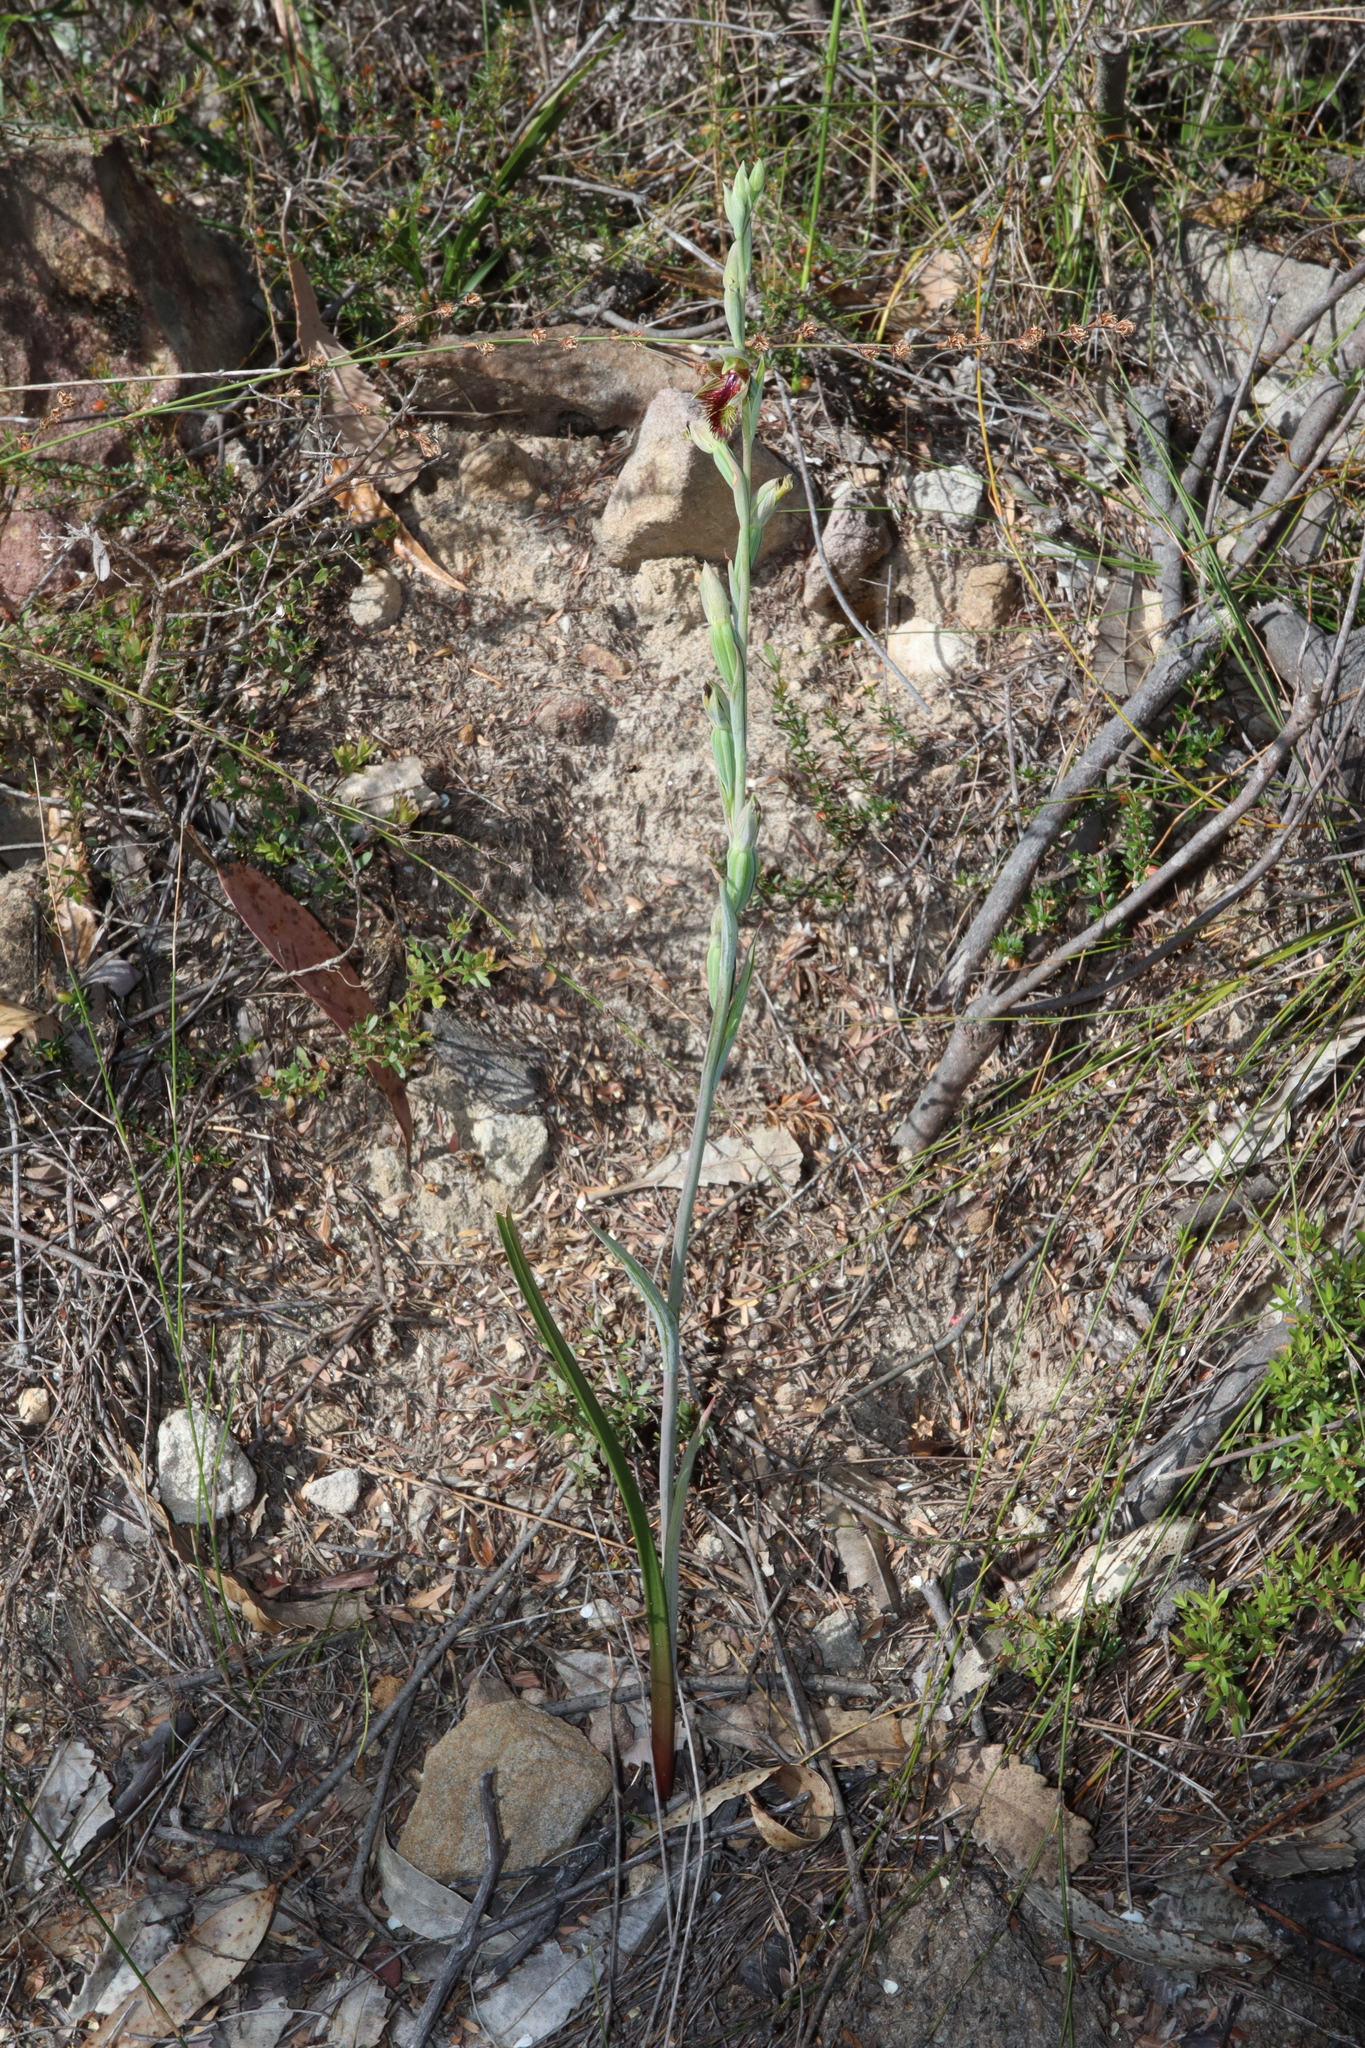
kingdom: Plantae
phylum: Tracheophyta
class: Liliopsida
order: Asparagales
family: Orchidaceae
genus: Calochilus
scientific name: Calochilus campestris
